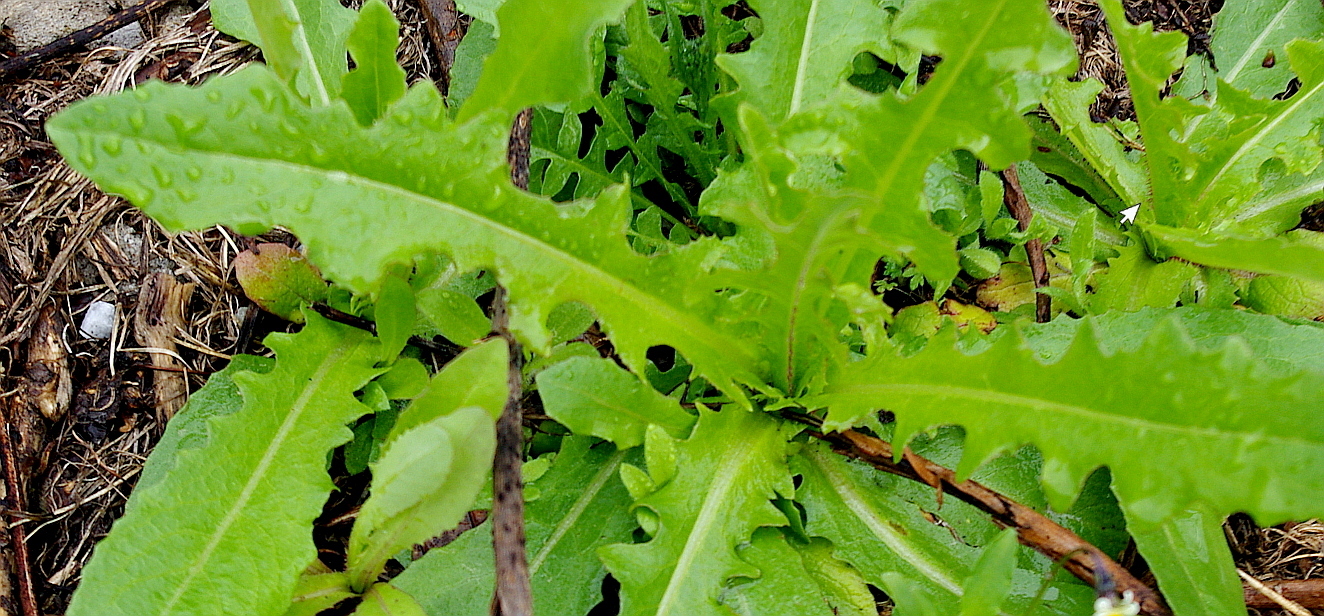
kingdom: Plantae
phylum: Tracheophyta
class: Magnoliopsida
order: Asterales
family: Asteraceae
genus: Lactuca
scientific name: Lactuca serriola
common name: Prickly lettuce
